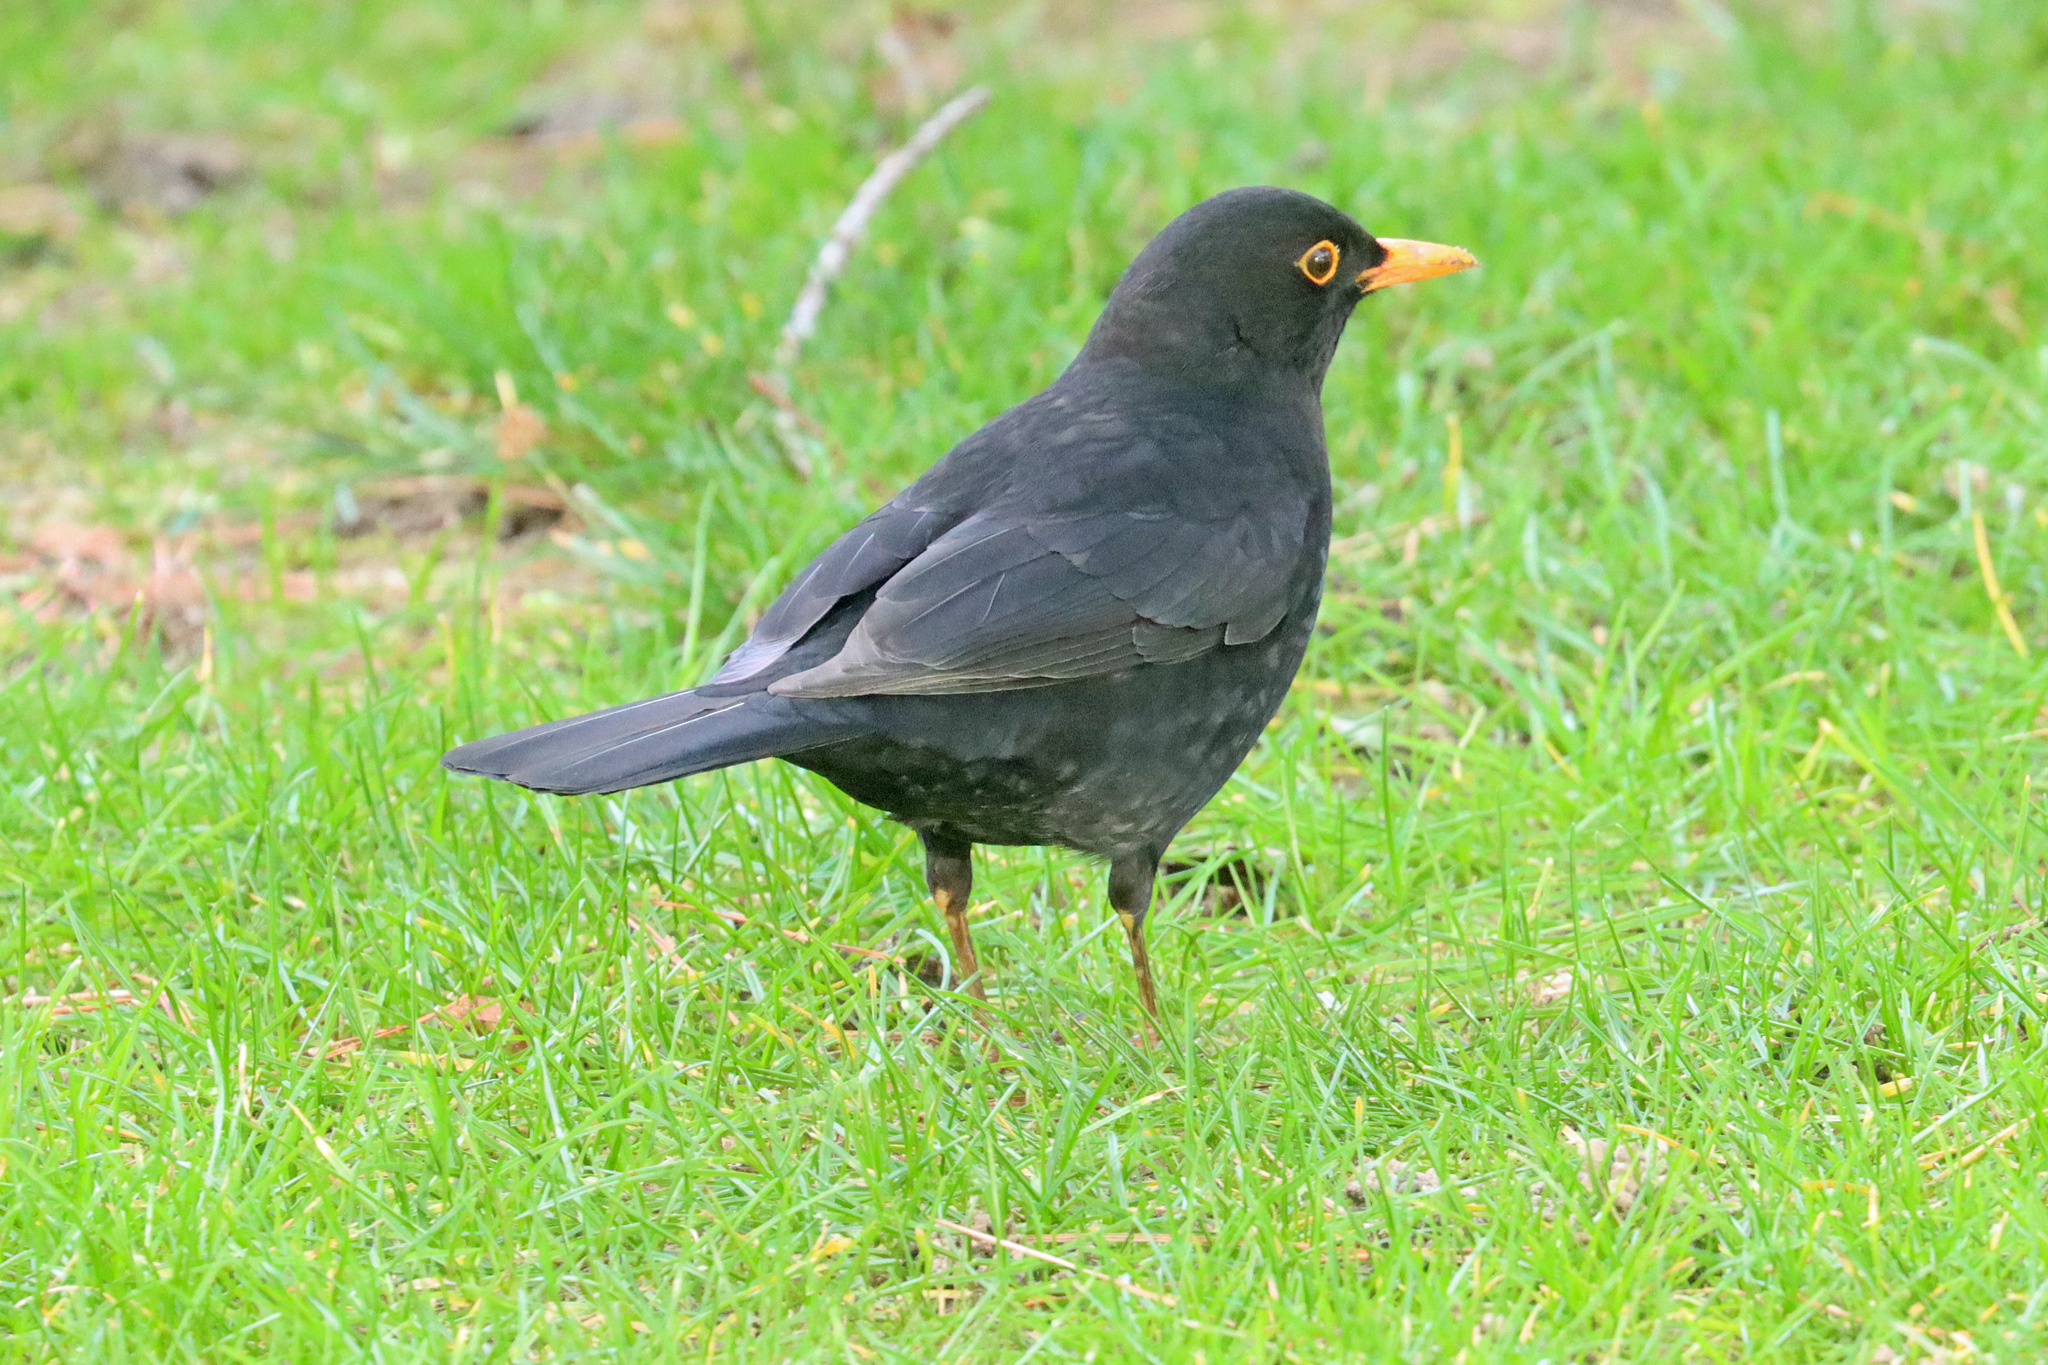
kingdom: Animalia
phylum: Chordata
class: Aves
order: Passeriformes
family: Turdidae
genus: Turdus
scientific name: Turdus merula
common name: Common blackbird
